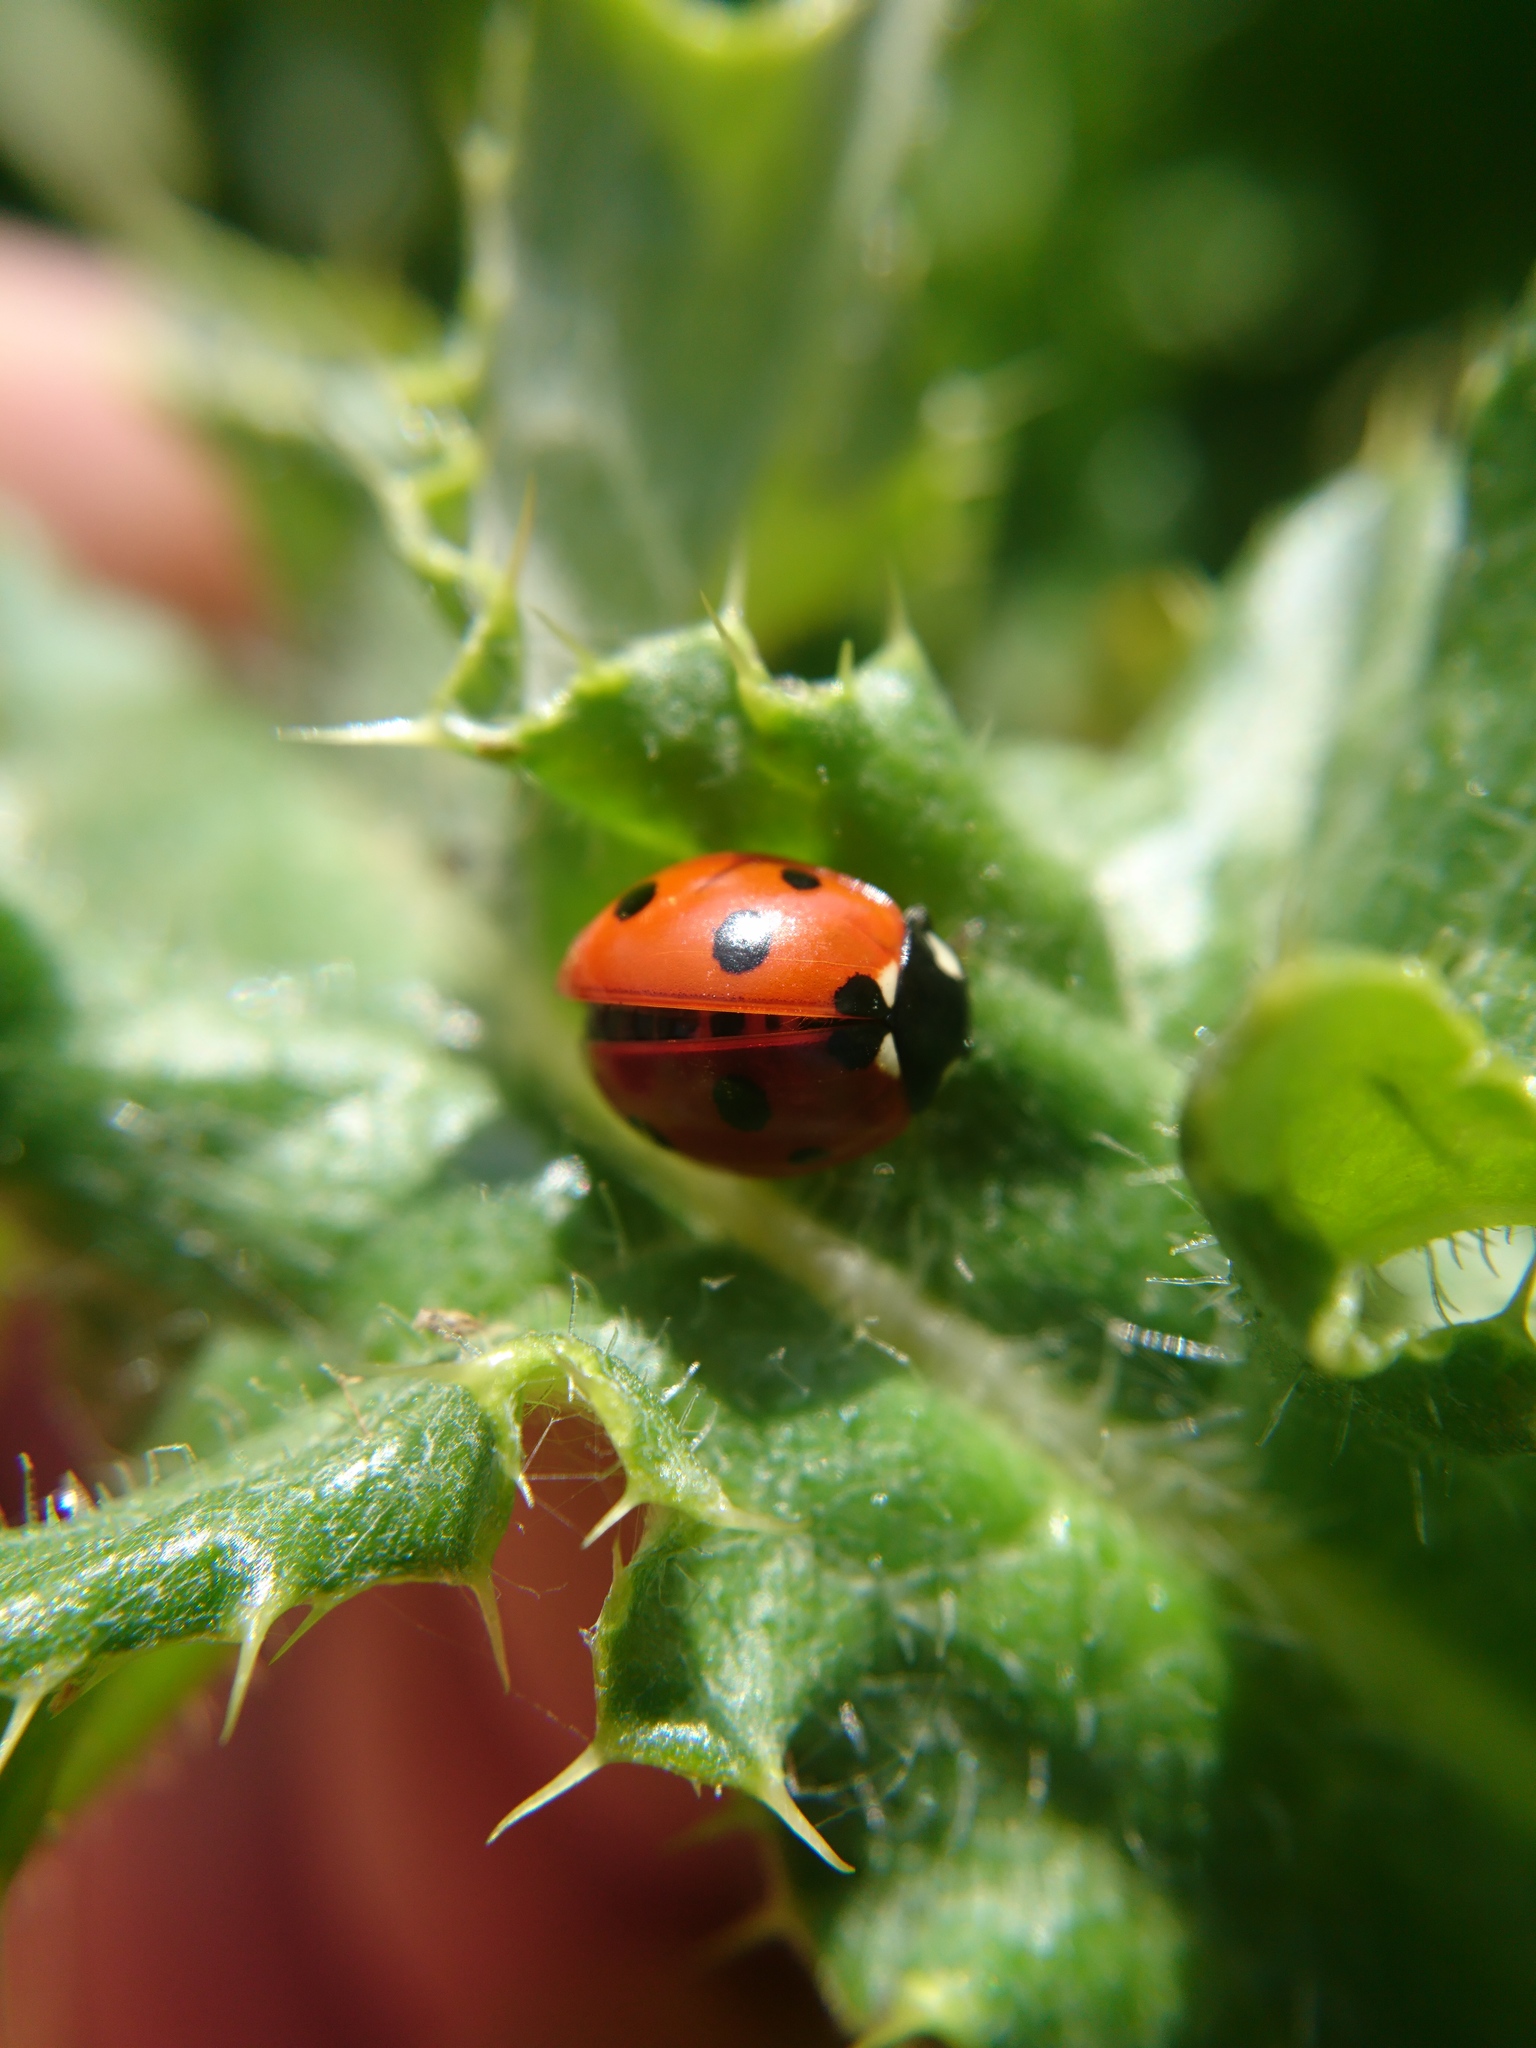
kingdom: Animalia
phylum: Arthropoda
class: Insecta
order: Coleoptera
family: Coccinellidae
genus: Coccinella
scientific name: Coccinella septempunctata
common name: Sevenspotted lady beetle
